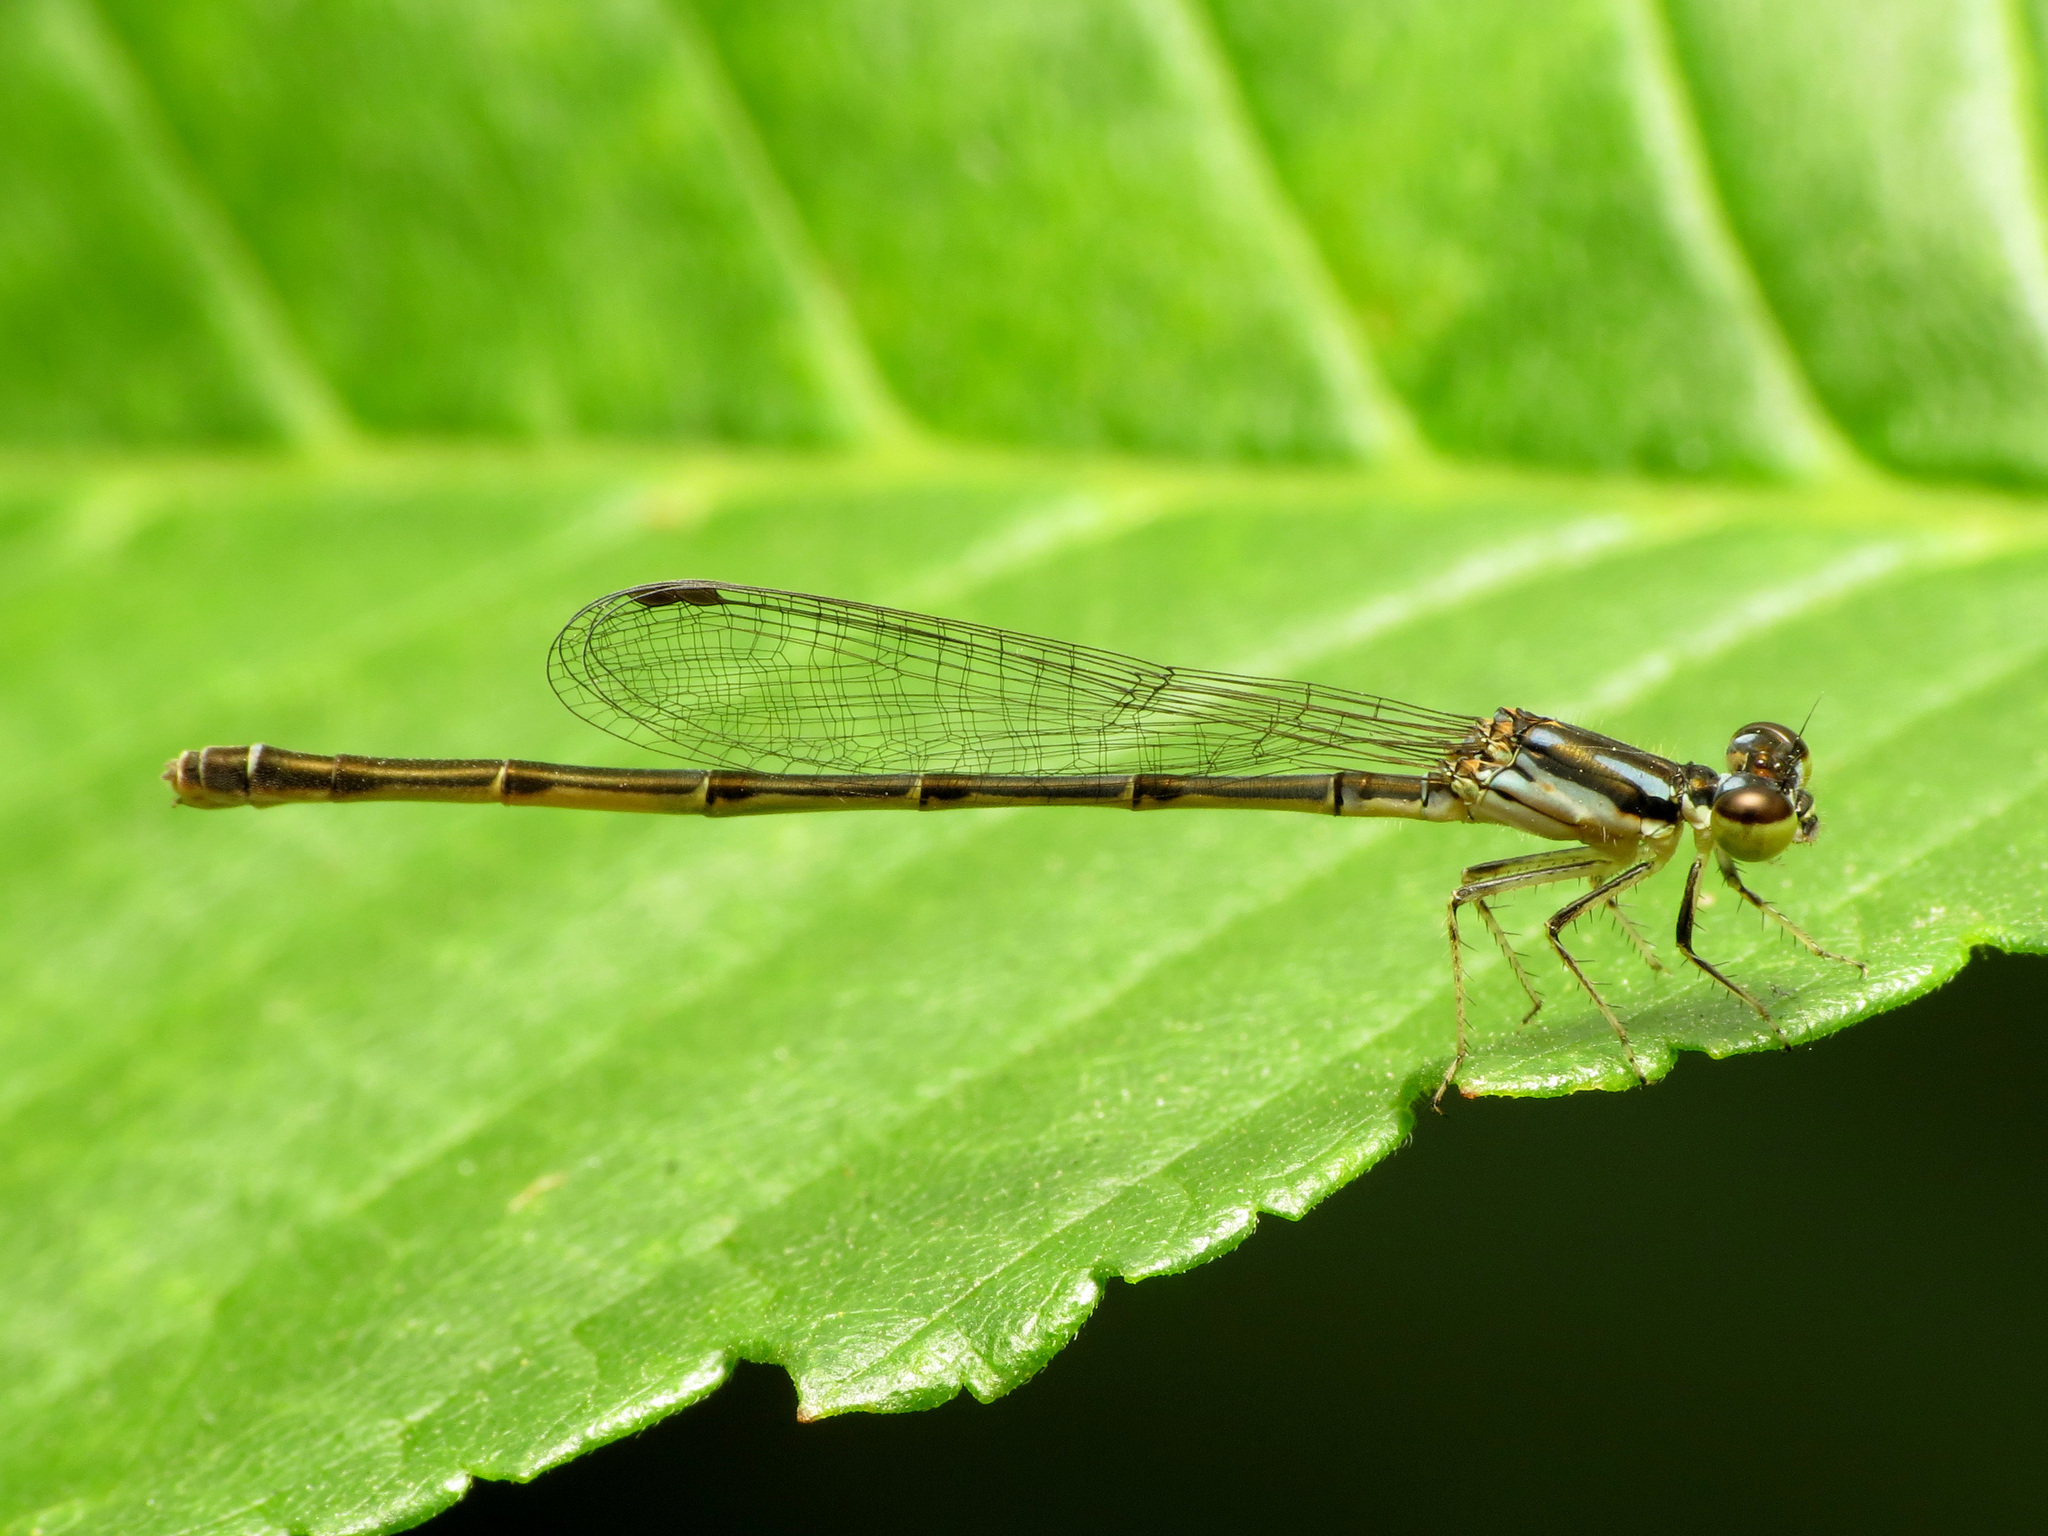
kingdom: Animalia
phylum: Arthropoda
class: Insecta
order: Odonata
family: Coenagrionidae
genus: Ischnura
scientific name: Ischnura posita
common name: Fragile forktail
